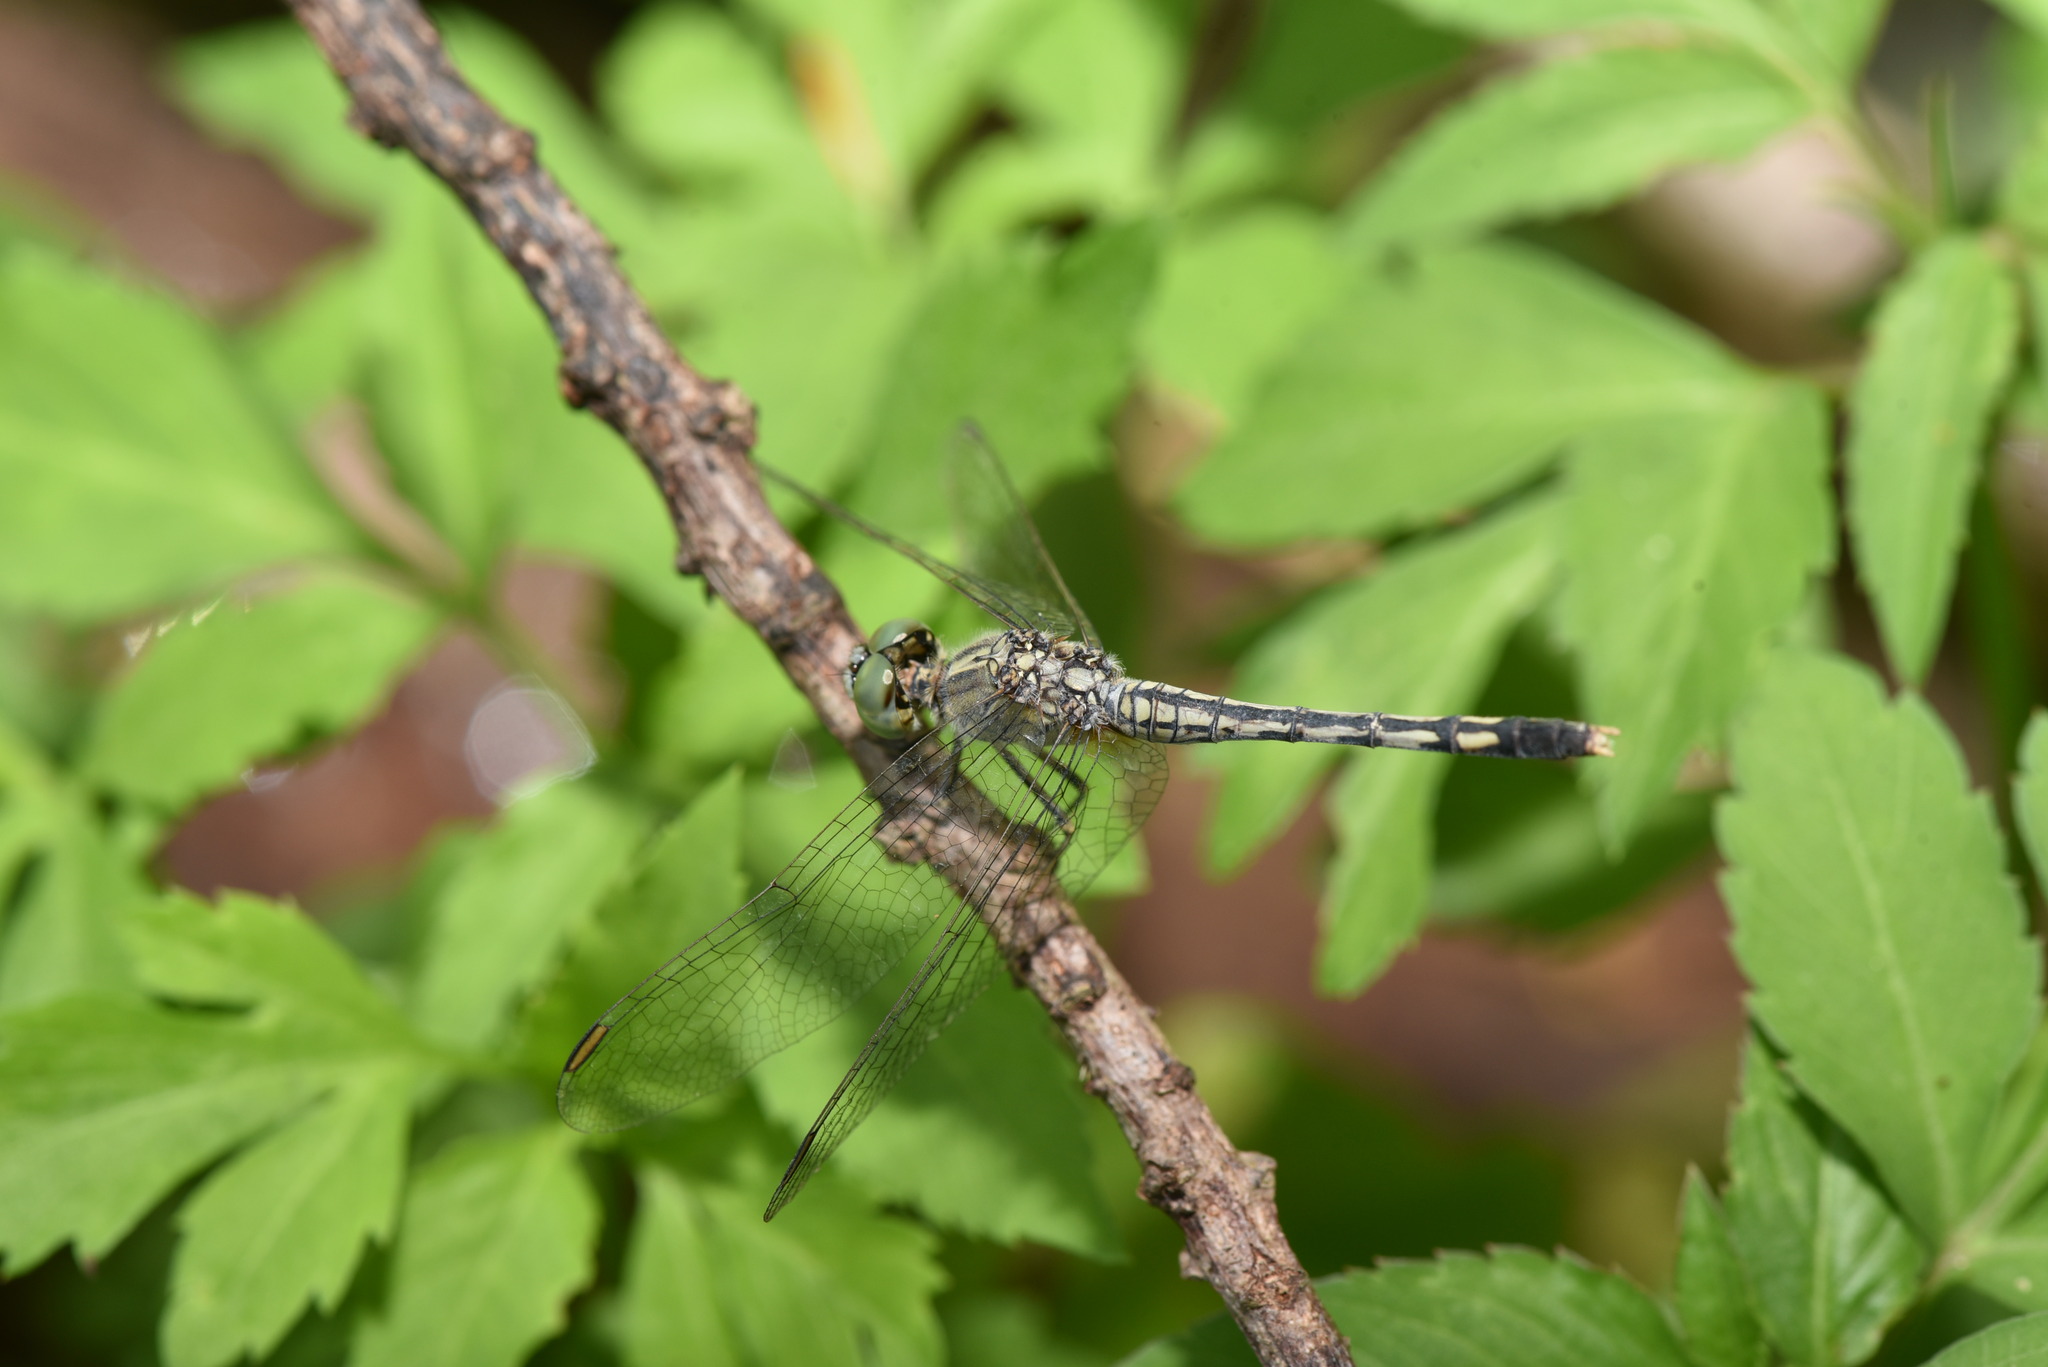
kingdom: Animalia
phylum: Arthropoda
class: Insecta
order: Odonata
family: Libellulidae
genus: Diplacodes
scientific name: Diplacodes trivialis
